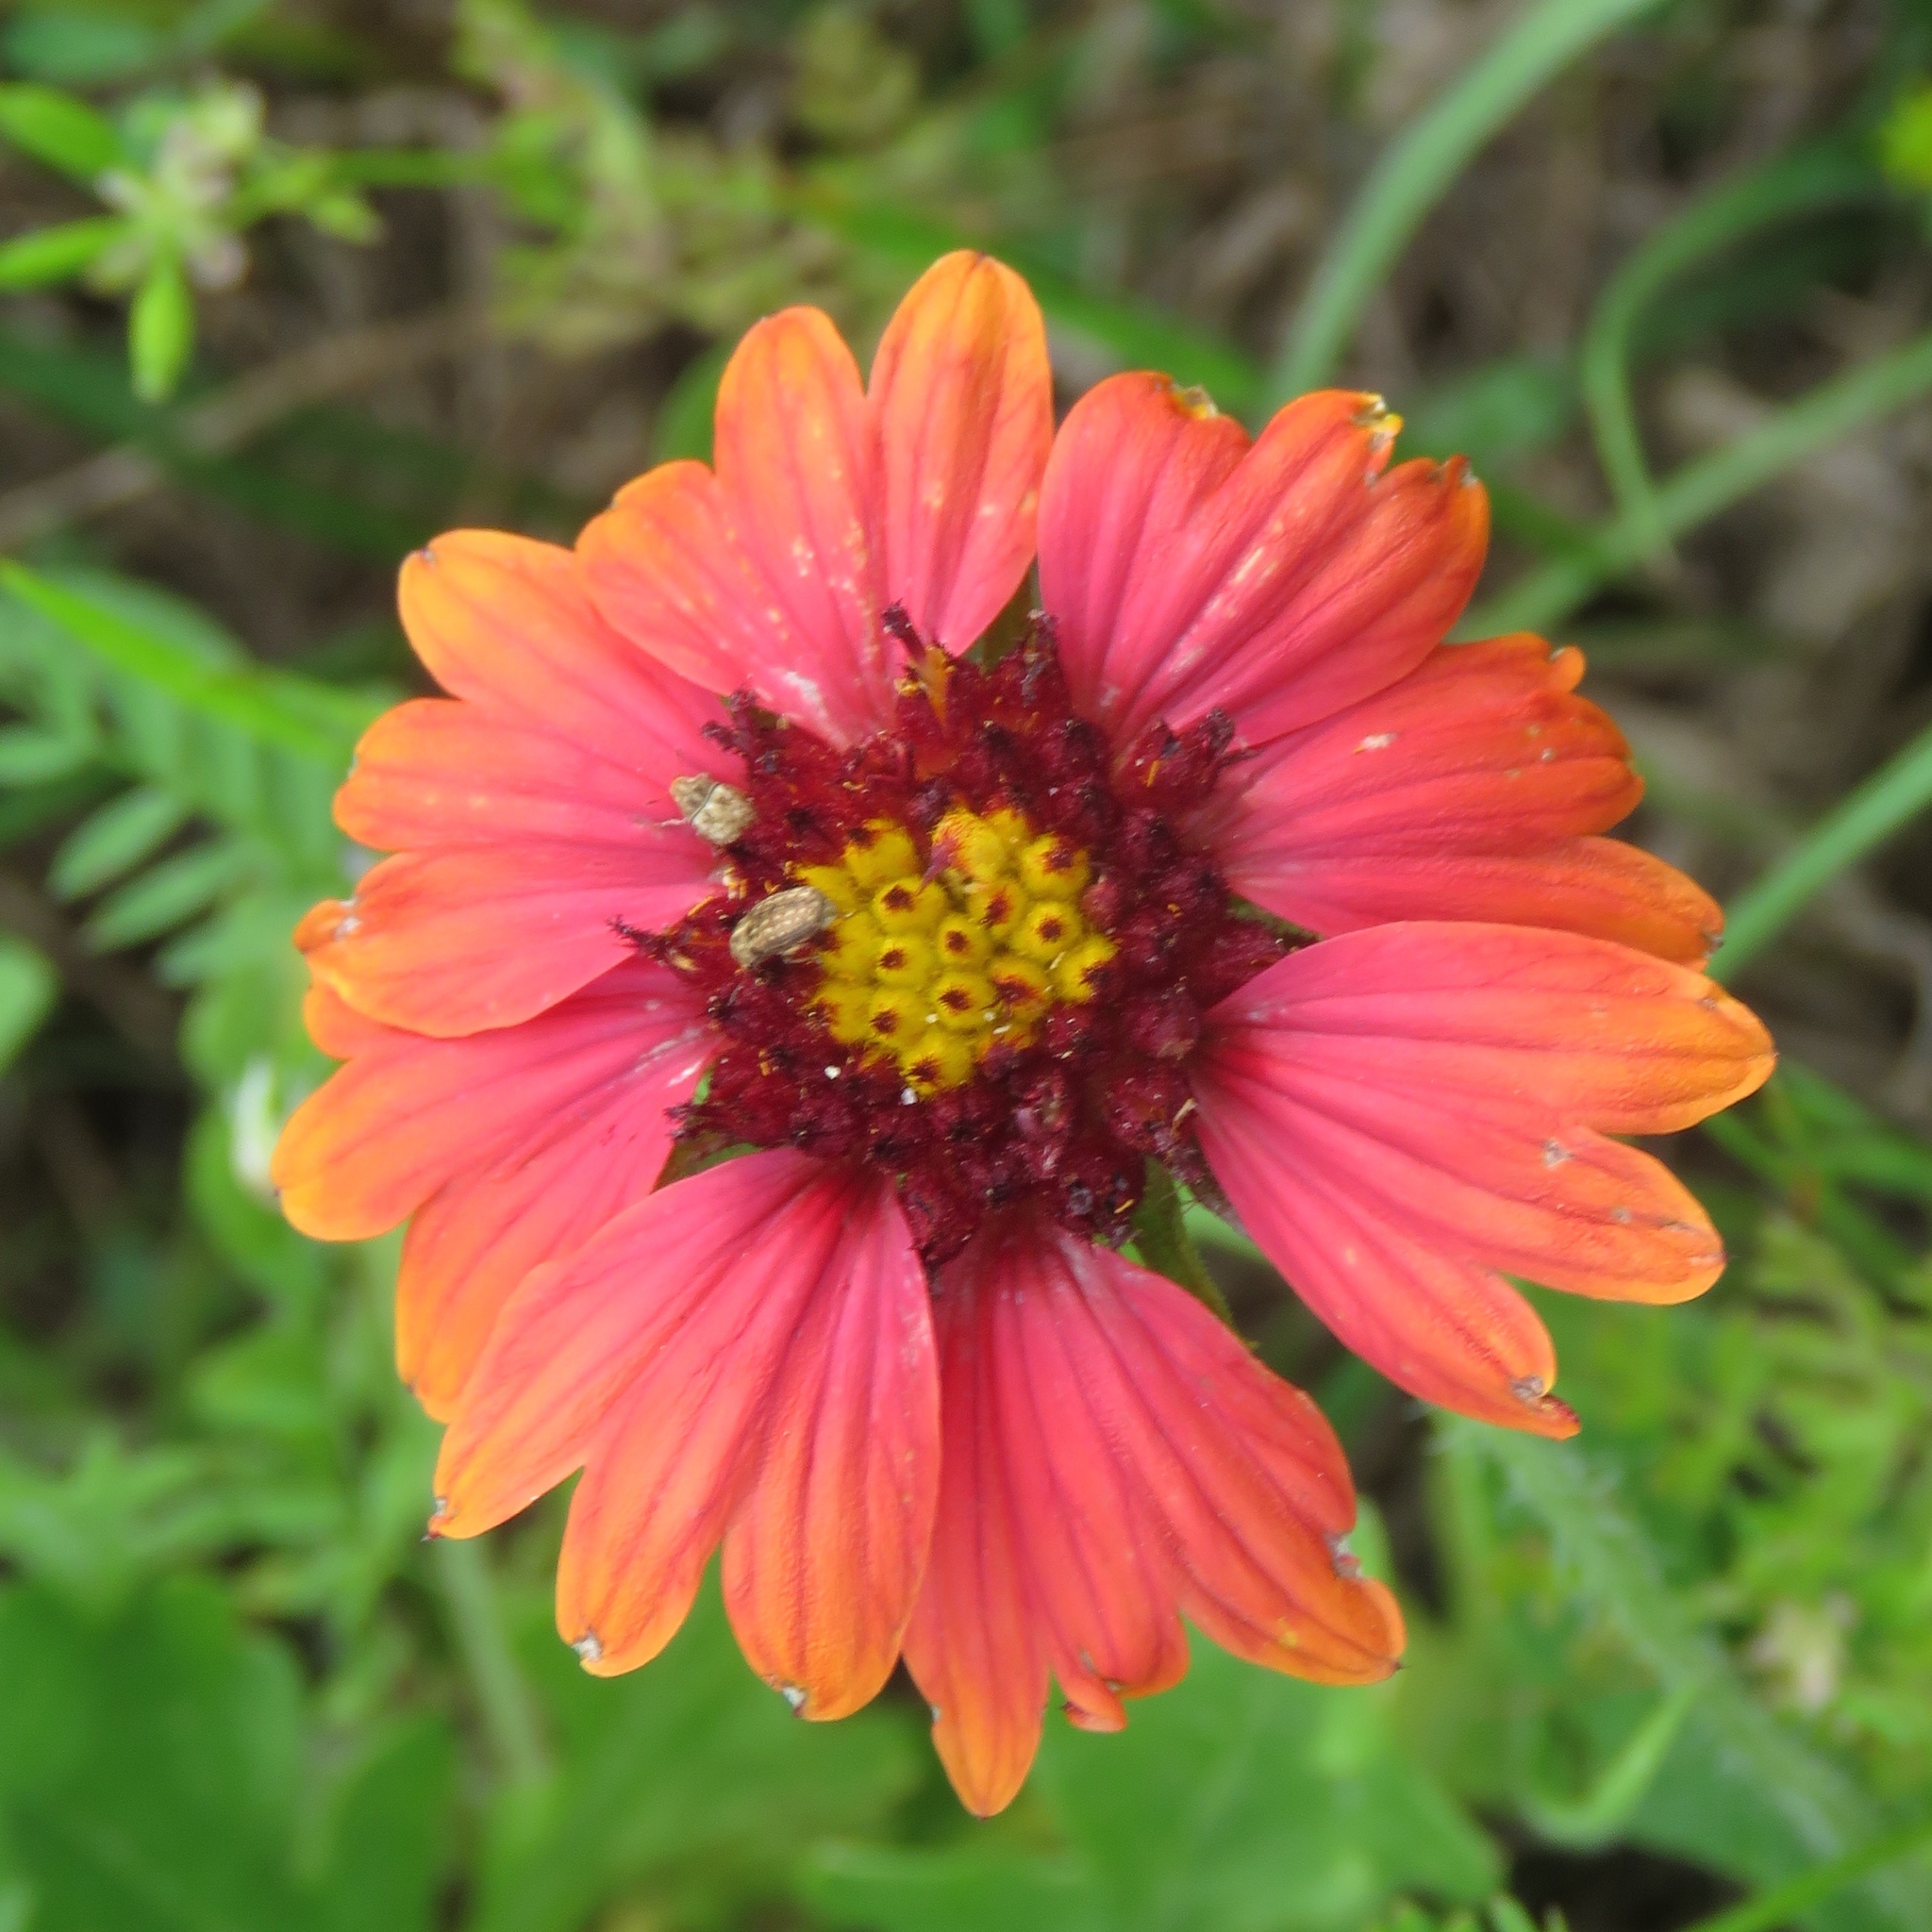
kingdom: Plantae
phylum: Tracheophyta
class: Magnoliopsida
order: Asterales
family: Asteraceae
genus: Gaillardia
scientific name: Gaillardia pulchella
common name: Firewheel
